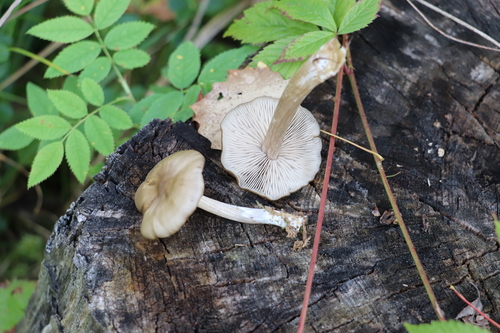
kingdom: Fungi
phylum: Basidiomycota
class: Agaricomycetes
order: Agaricales
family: Entolomataceae
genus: Entoloma
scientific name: Entoloma
